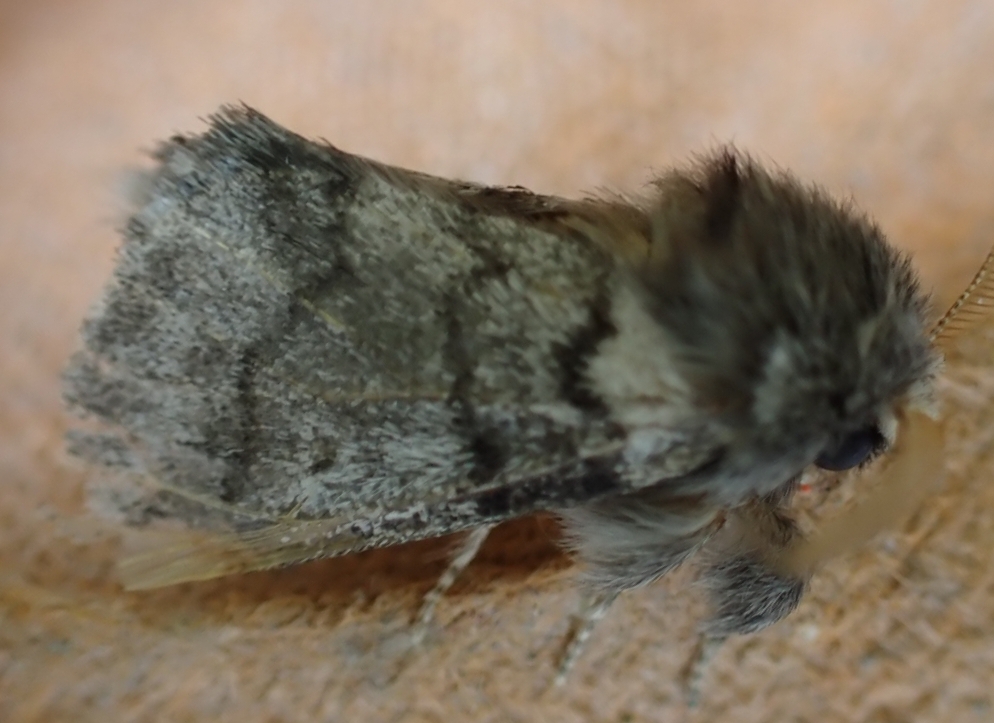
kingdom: Animalia
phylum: Arthropoda
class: Insecta
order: Lepidoptera
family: Notodontidae
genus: Thaumetopoea
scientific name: Thaumetopoea processionea
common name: Oak processionea
